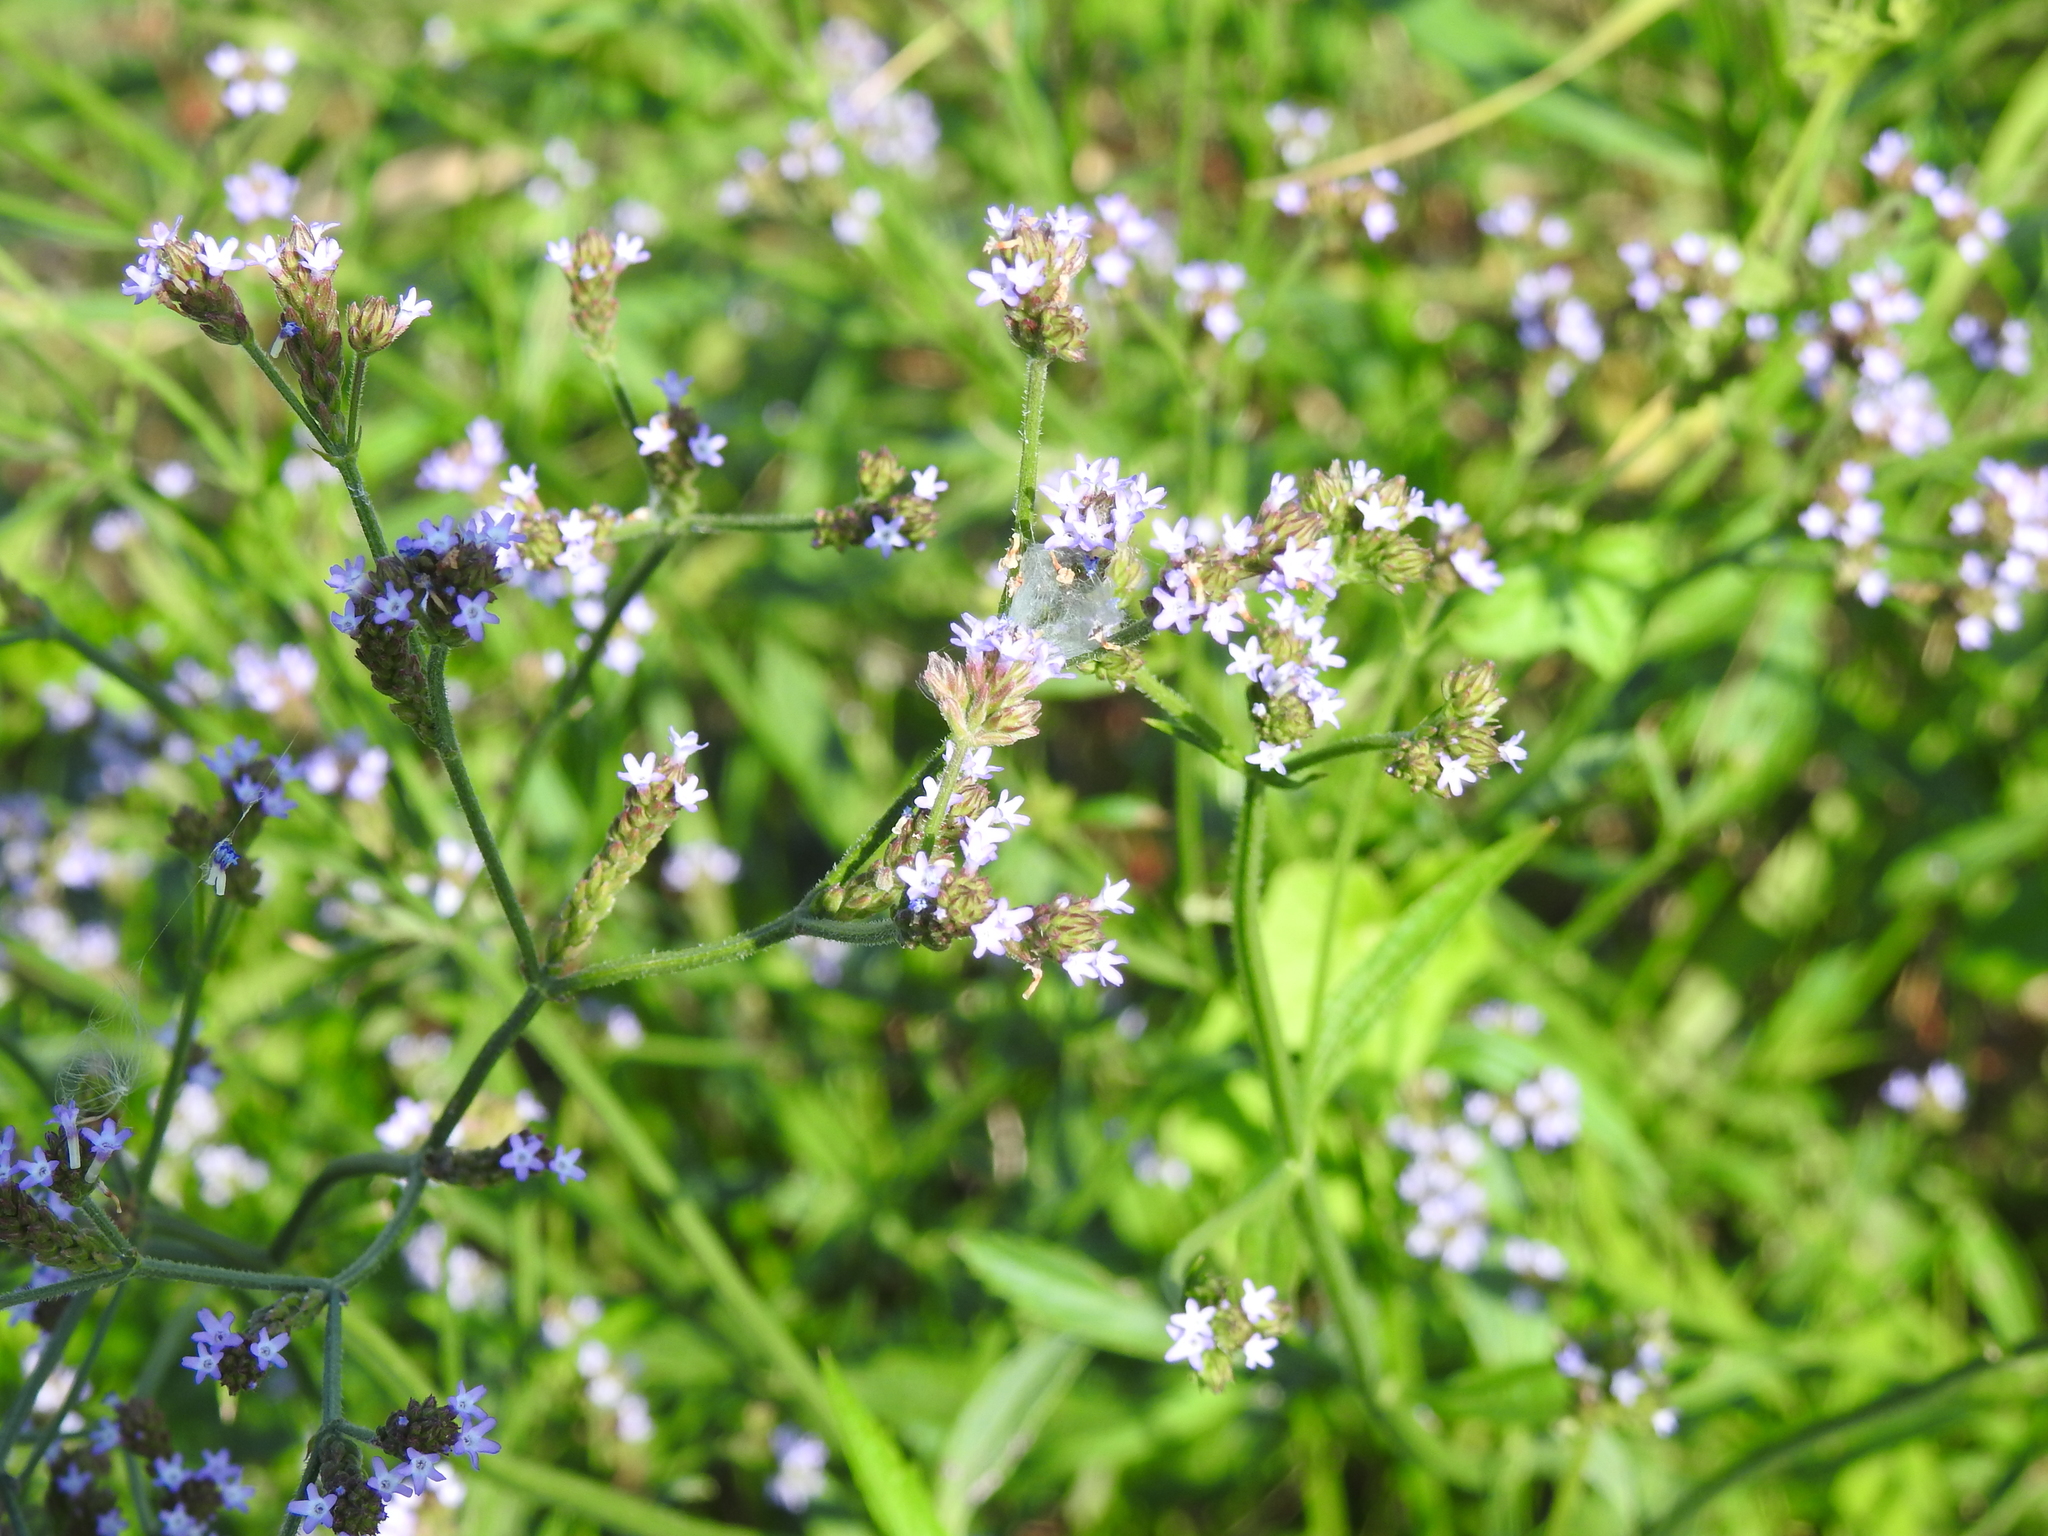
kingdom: Plantae
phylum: Tracheophyta
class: Magnoliopsida
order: Lamiales
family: Verbenaceae
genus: Verbena
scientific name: Verbena brasiliensis
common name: Brazilian vervain
